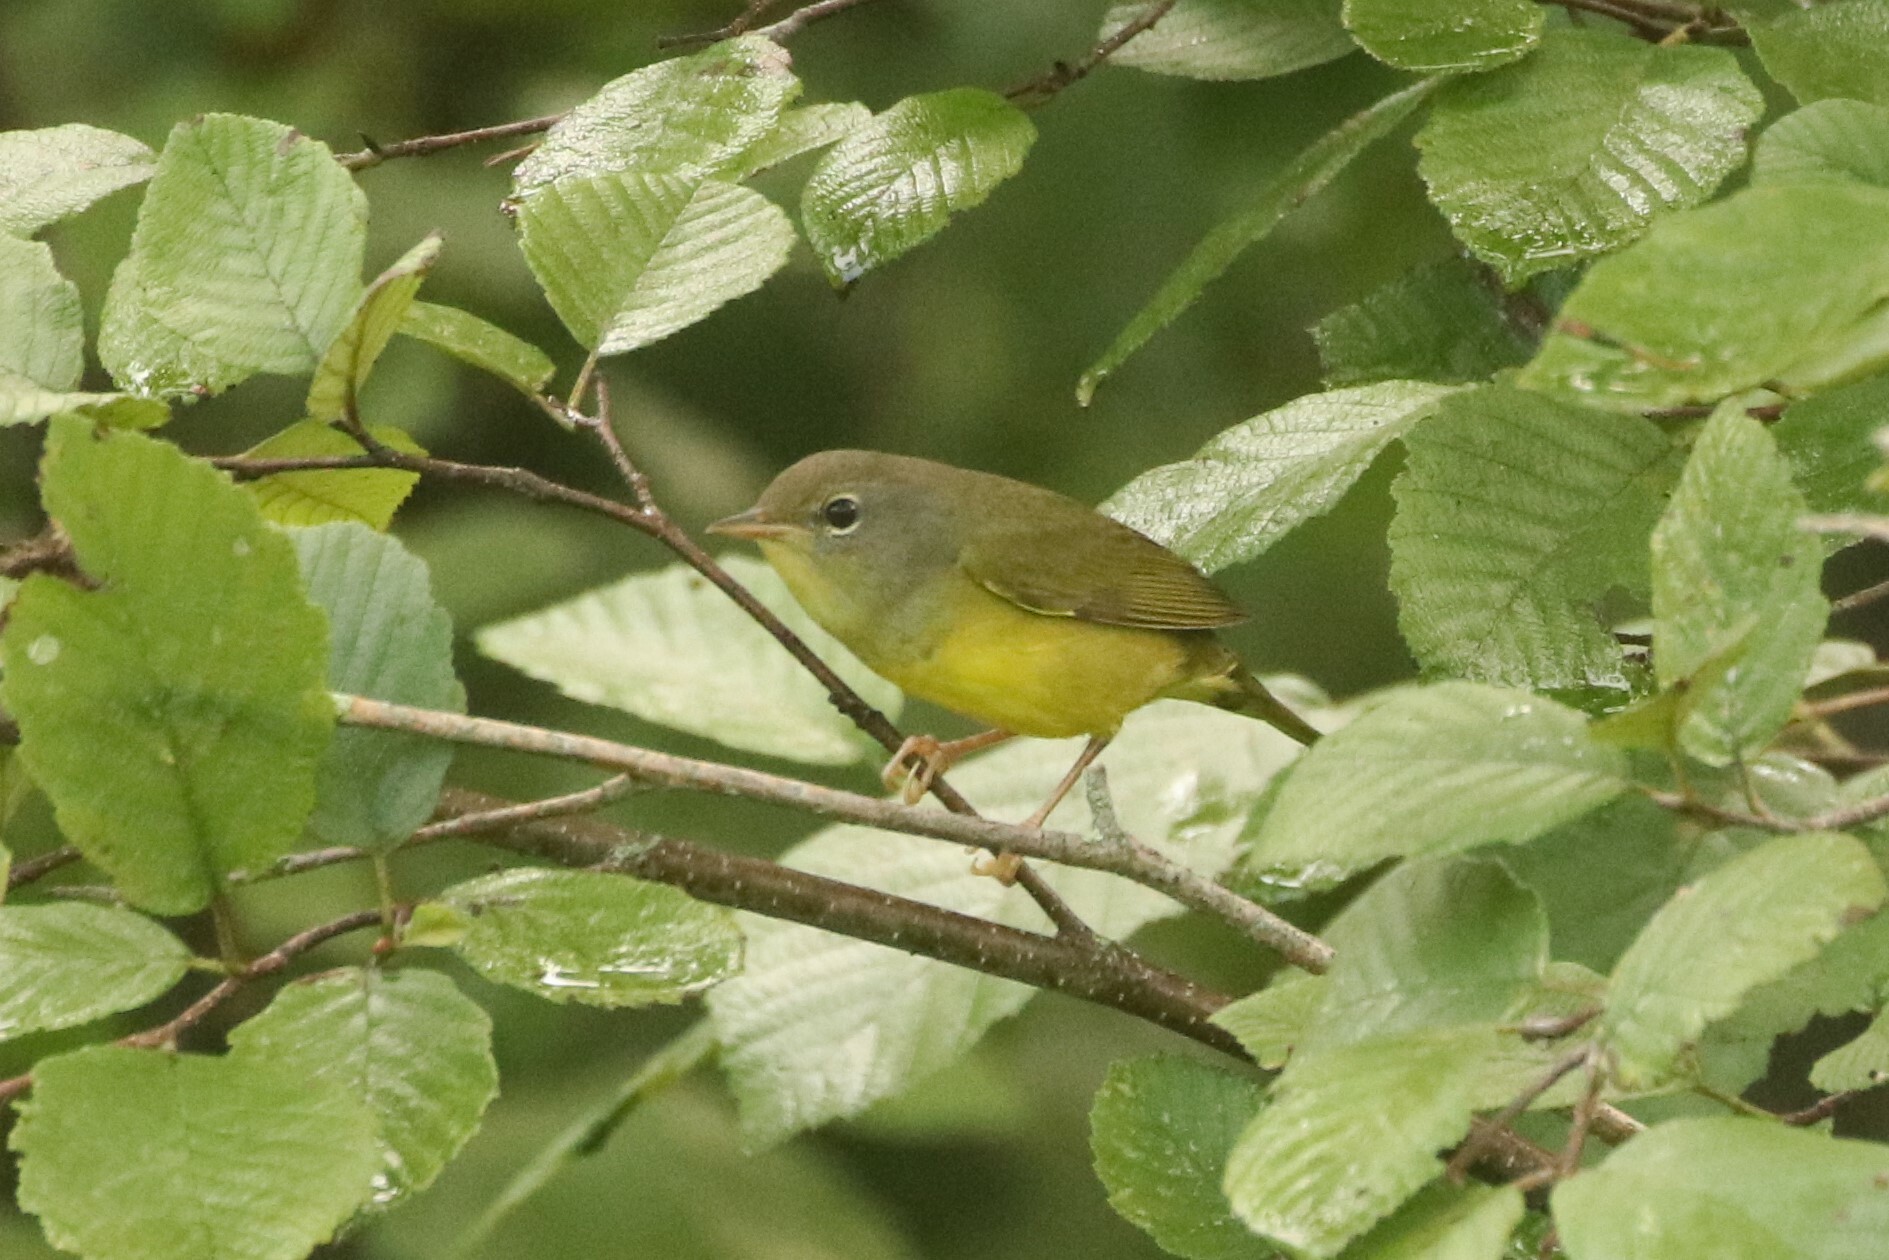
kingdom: Animalia
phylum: Chordata
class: Aves
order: Passeriformes
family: Parulidae
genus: Geothlypis
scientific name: Geothlypis philadelphia
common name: Mourning warbler
